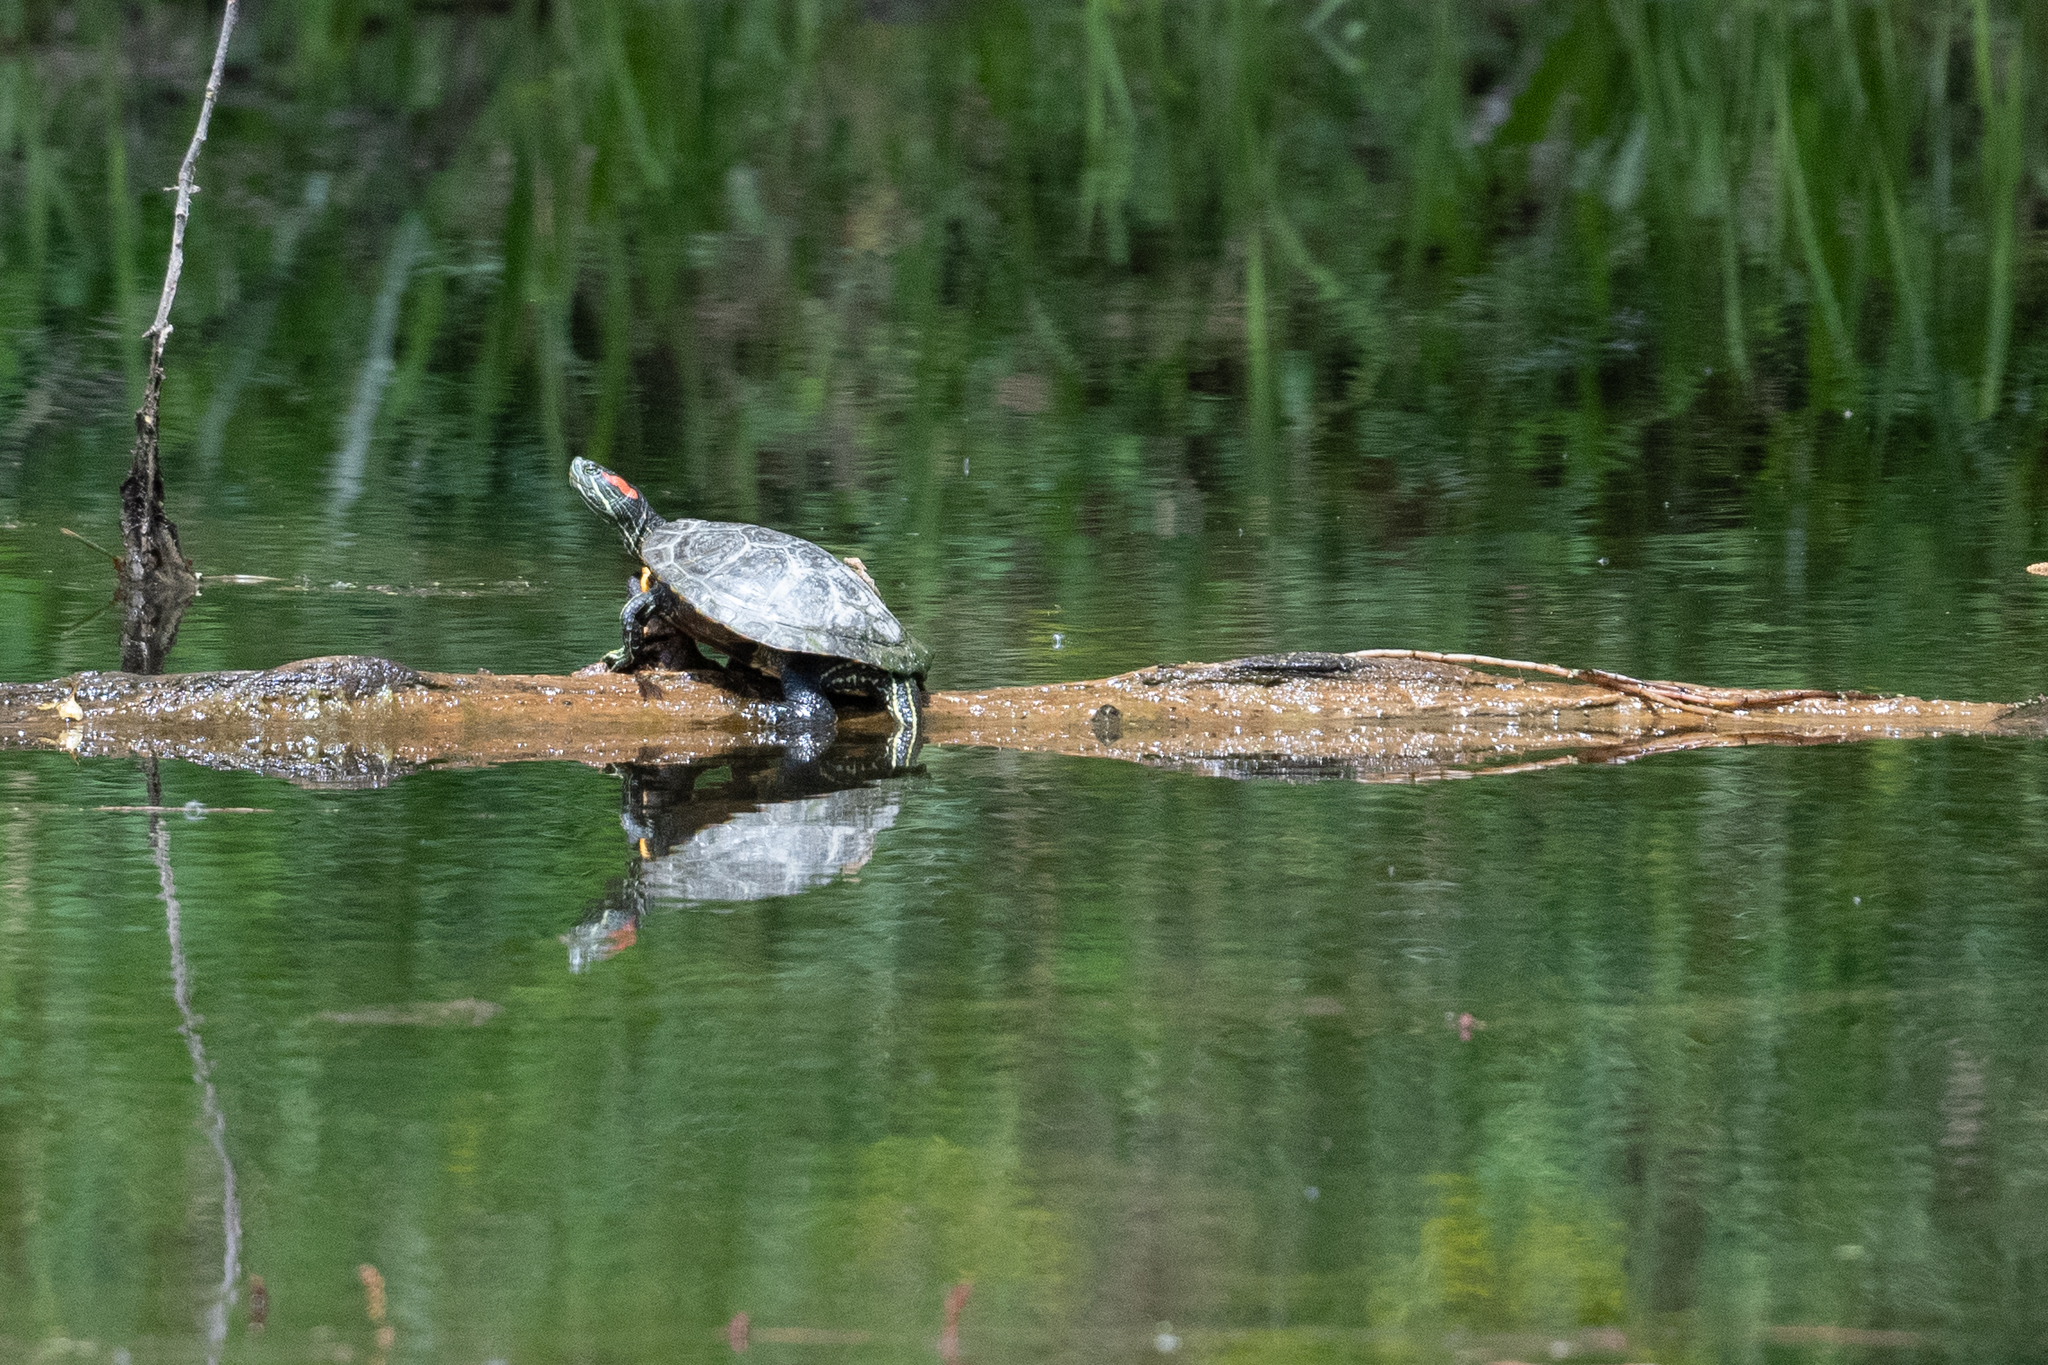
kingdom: Animalia
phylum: Chordata
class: Testudines
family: Emydidae
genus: Trachemys
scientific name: Trachemys scripta
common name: Slider
